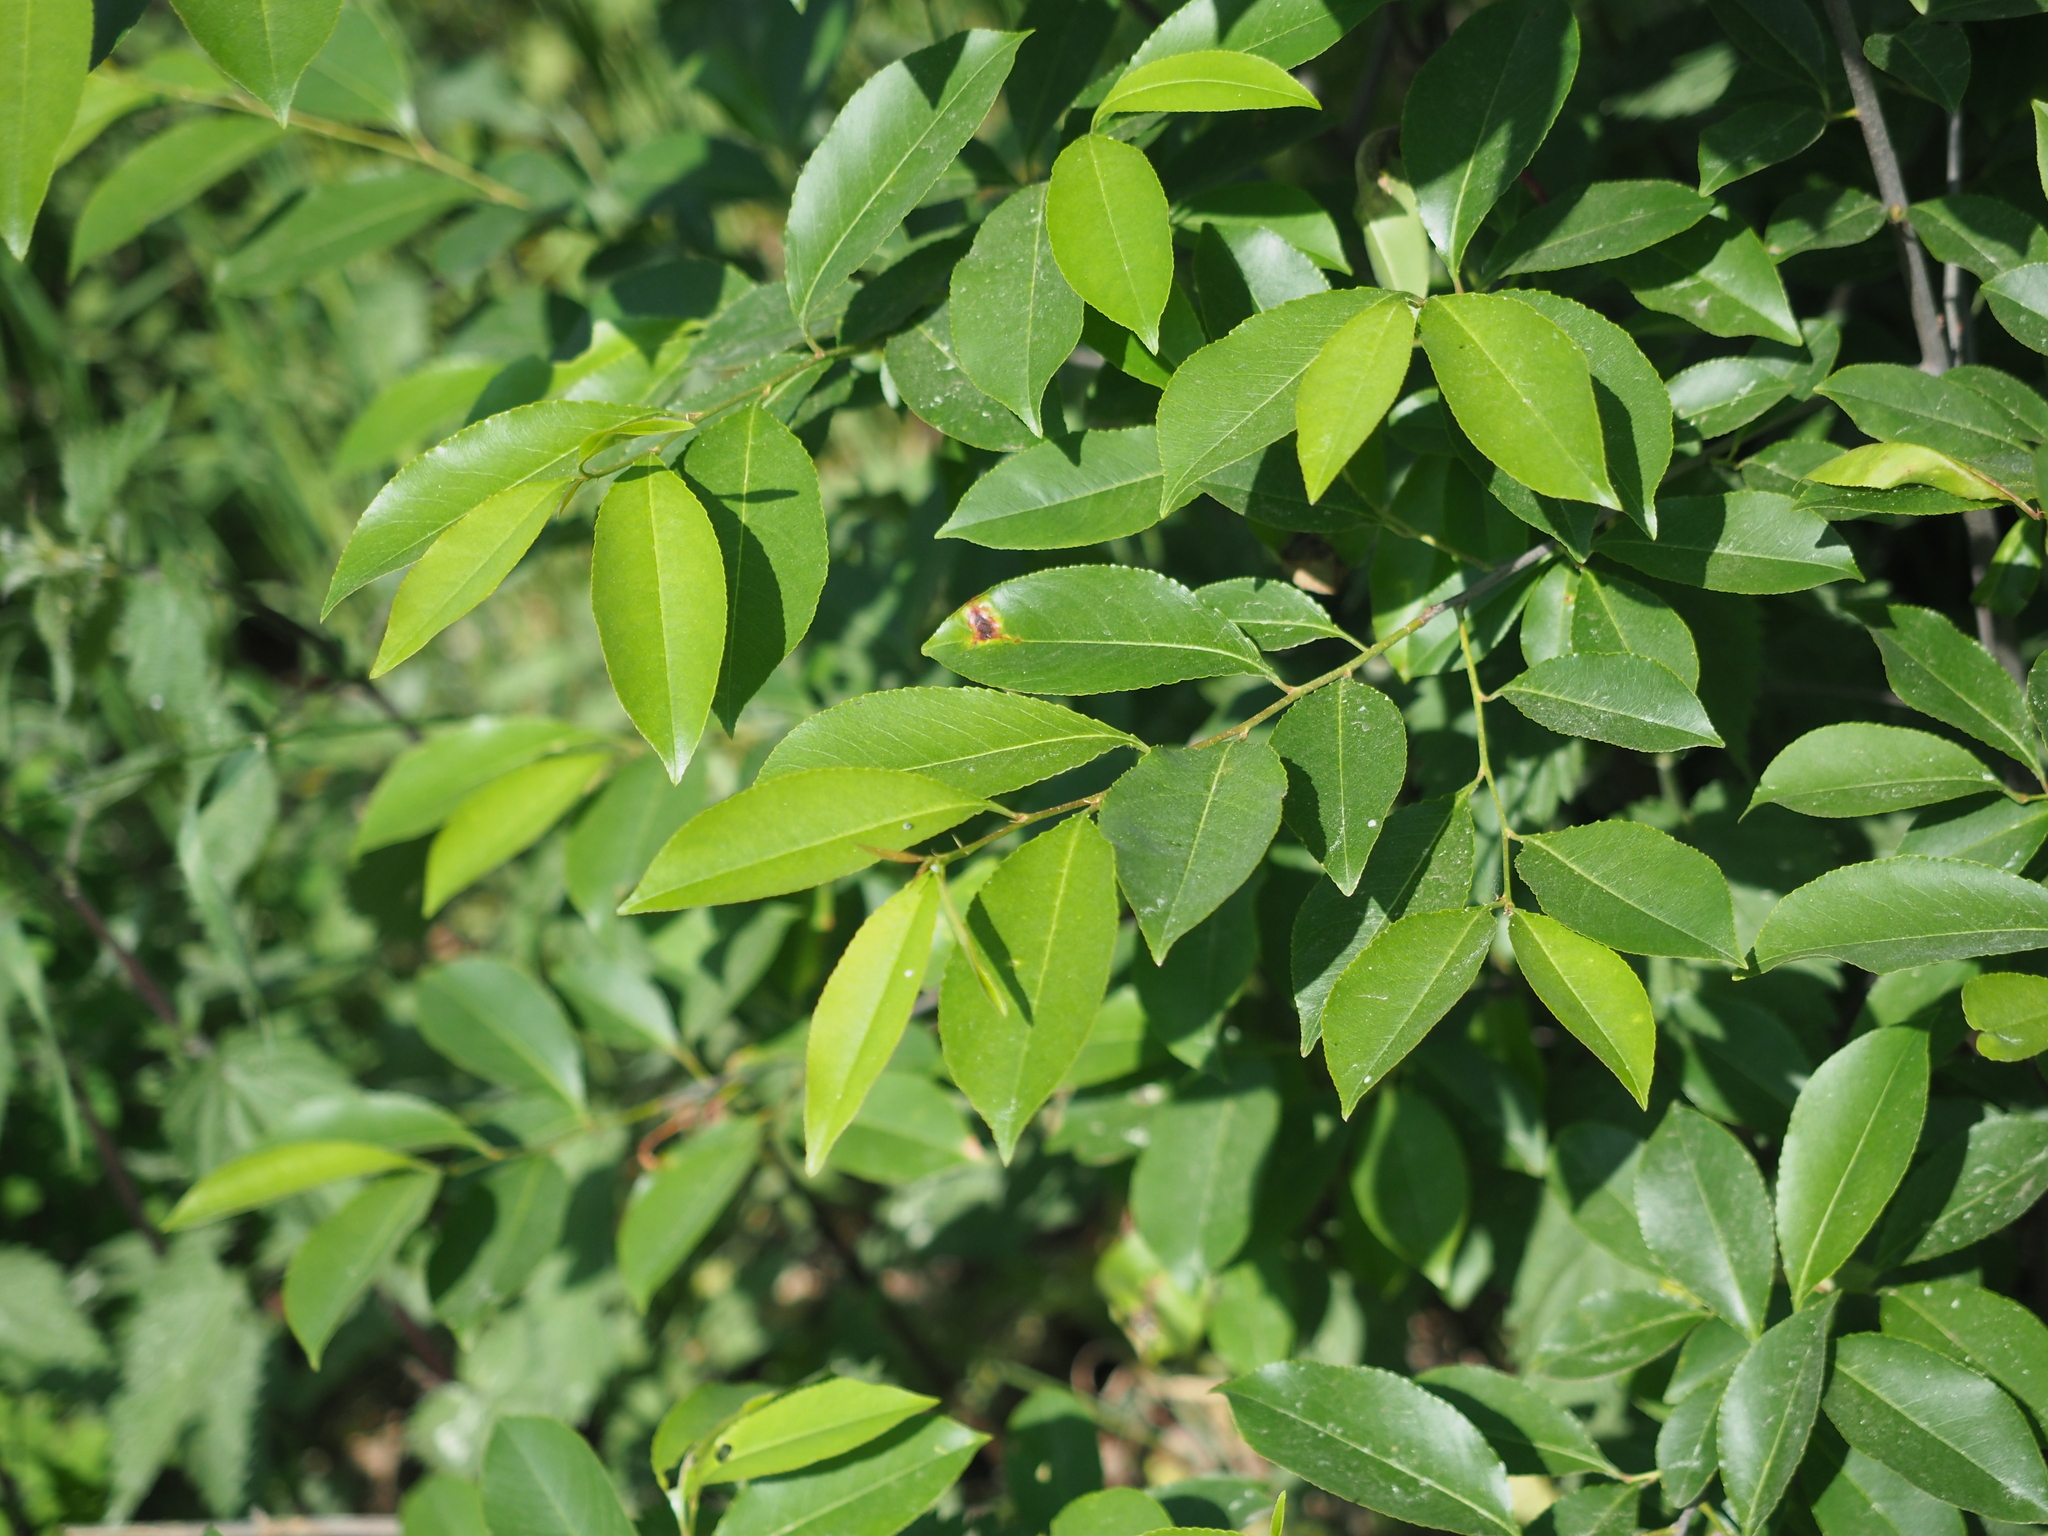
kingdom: Plantae
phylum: Tracheophyta
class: Magnoliopsida
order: Rosales
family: Rosaceae
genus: Prunus
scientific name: Prunus serotina
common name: Black cherry
